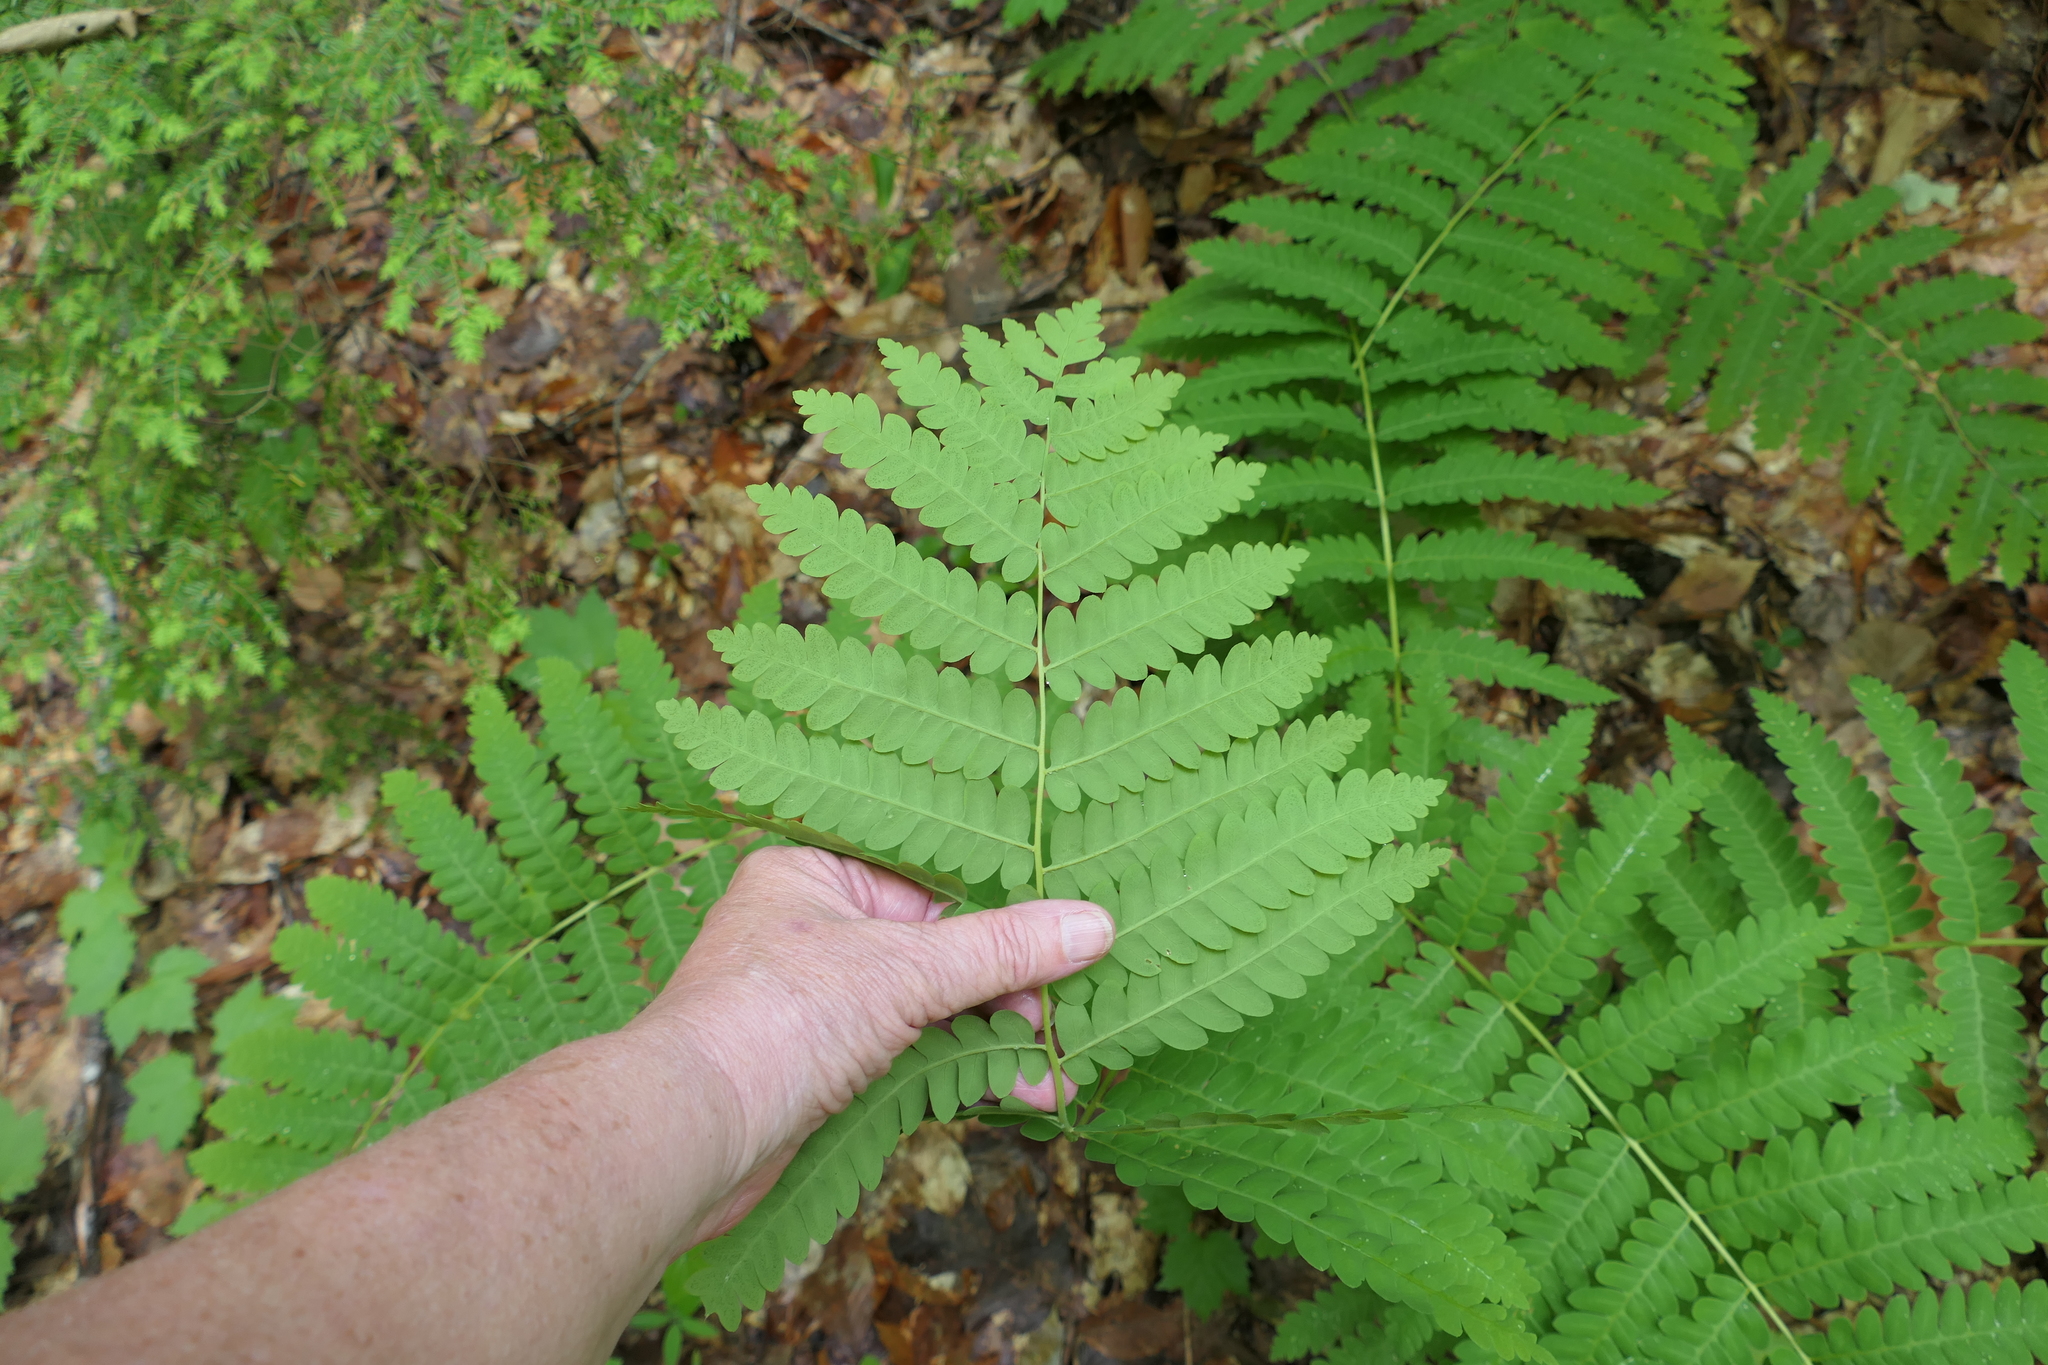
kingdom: Plantae
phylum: Tracheophyta
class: Polypodiopsida
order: Osmundales
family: Osmundaceae
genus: Claytosmunda
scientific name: Claytosmunda claytoniana
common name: Clayton's fern
